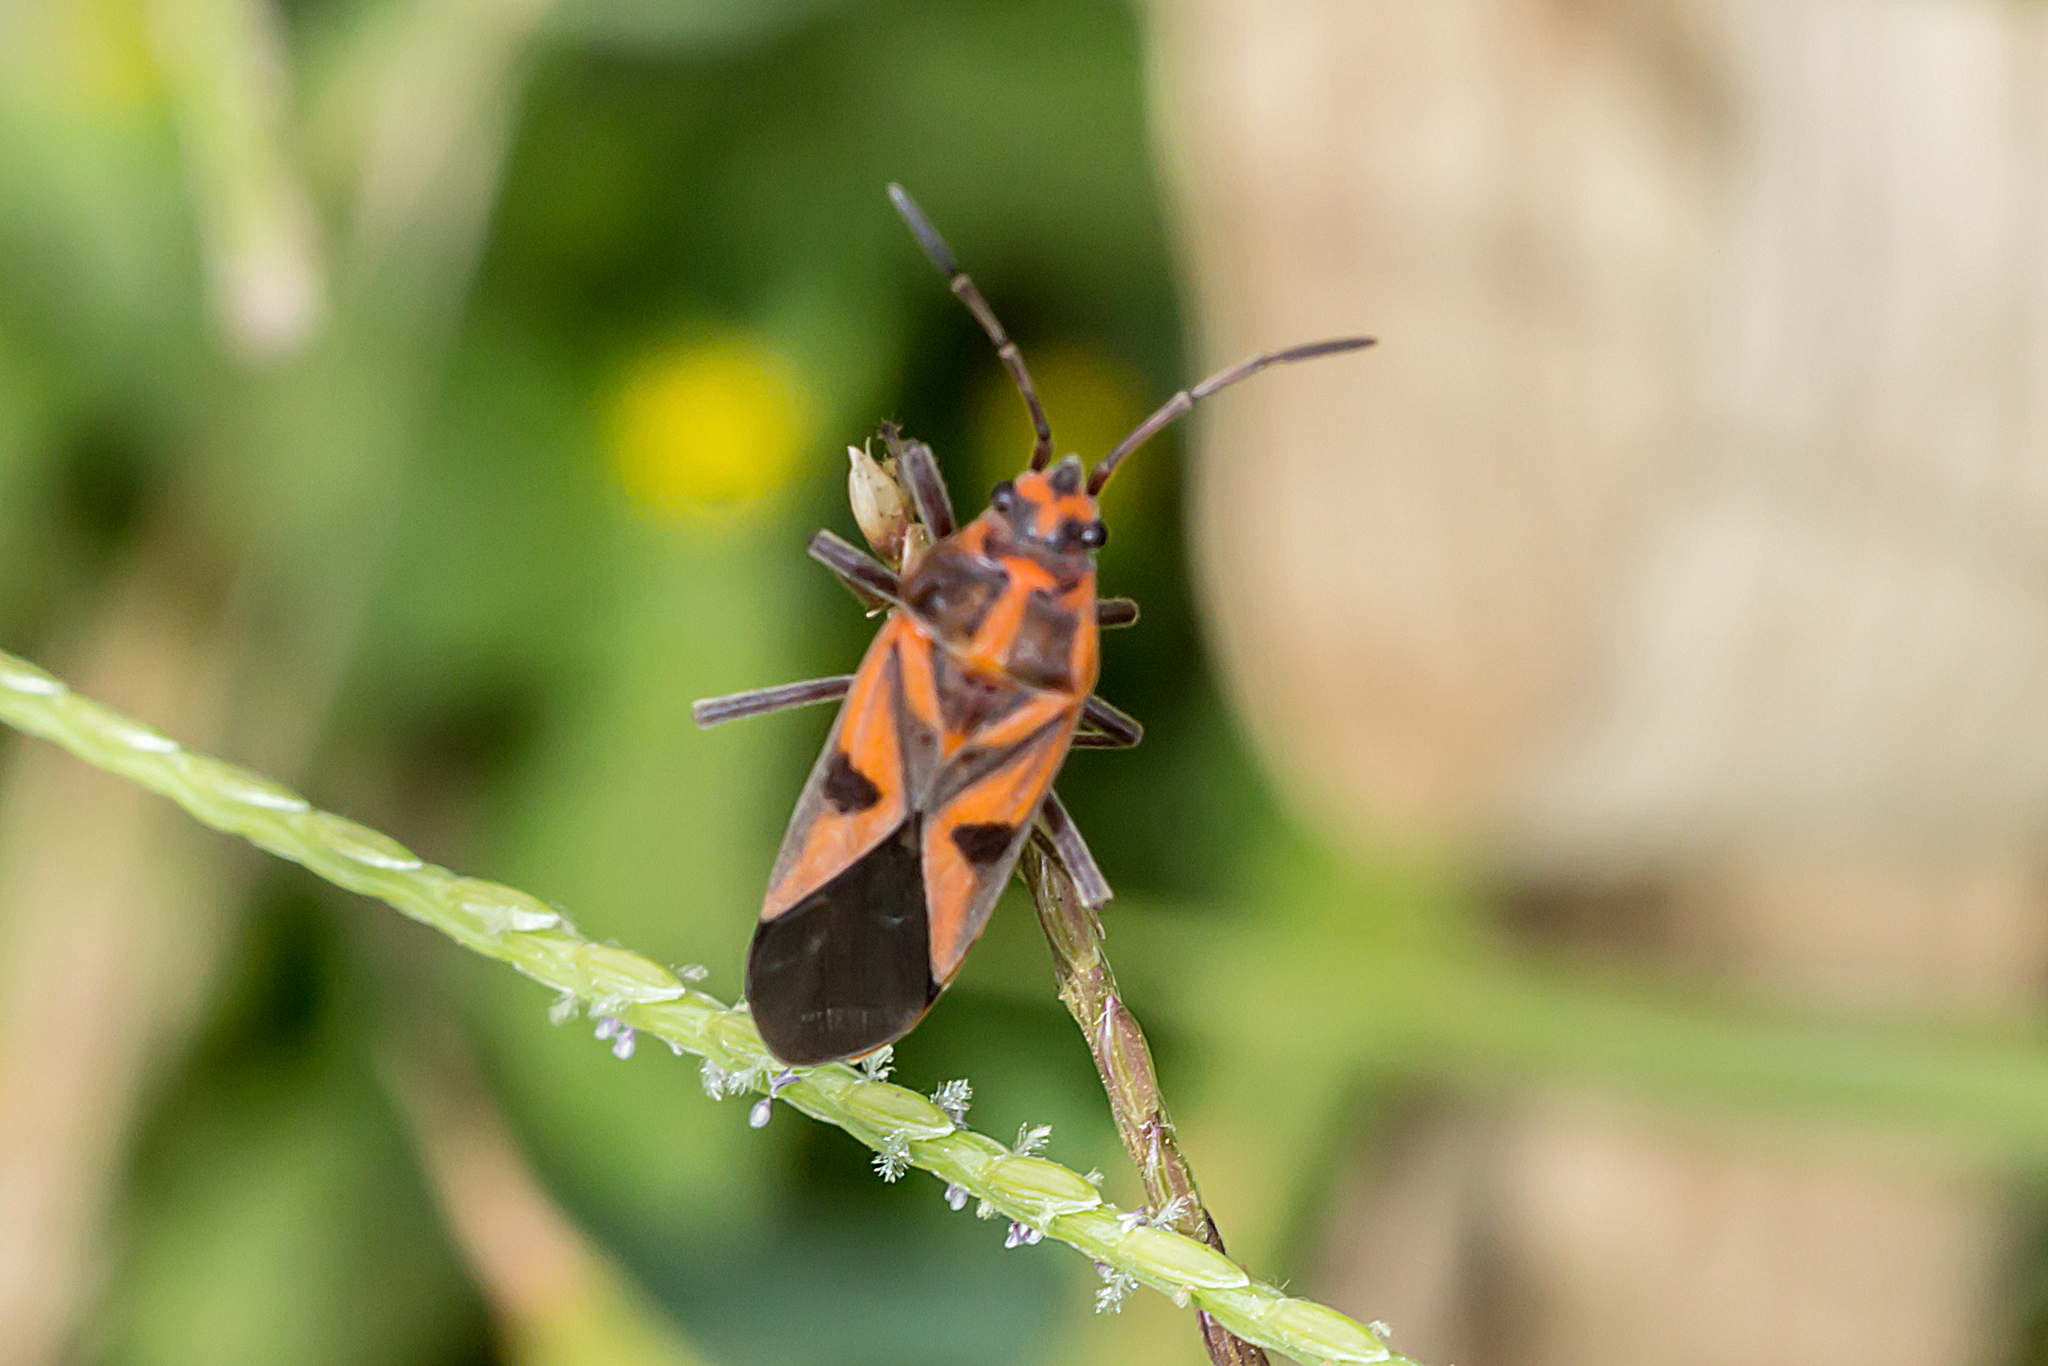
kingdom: Animalia
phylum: Arthropoda
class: Insecta
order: Hemiptera
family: Lygaeidae
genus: Spilostethus
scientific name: Spilostethus hospes
